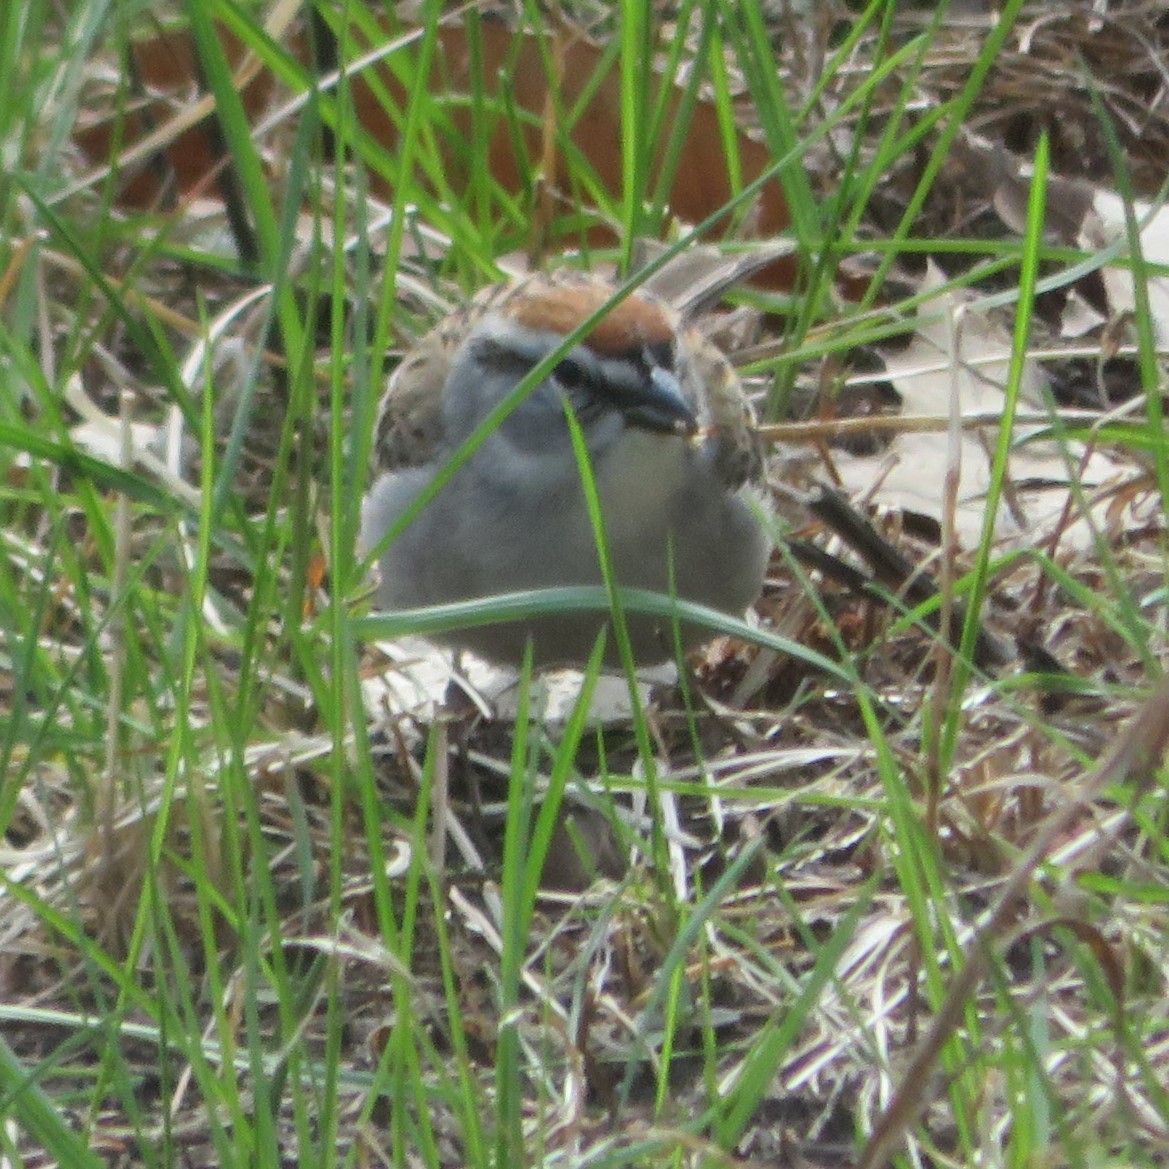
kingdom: Animalia
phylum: Chordata
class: Aves
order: Passeriformes
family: Passerellidae
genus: Spizella
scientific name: Spizella passerina
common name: Chipping sparrow
